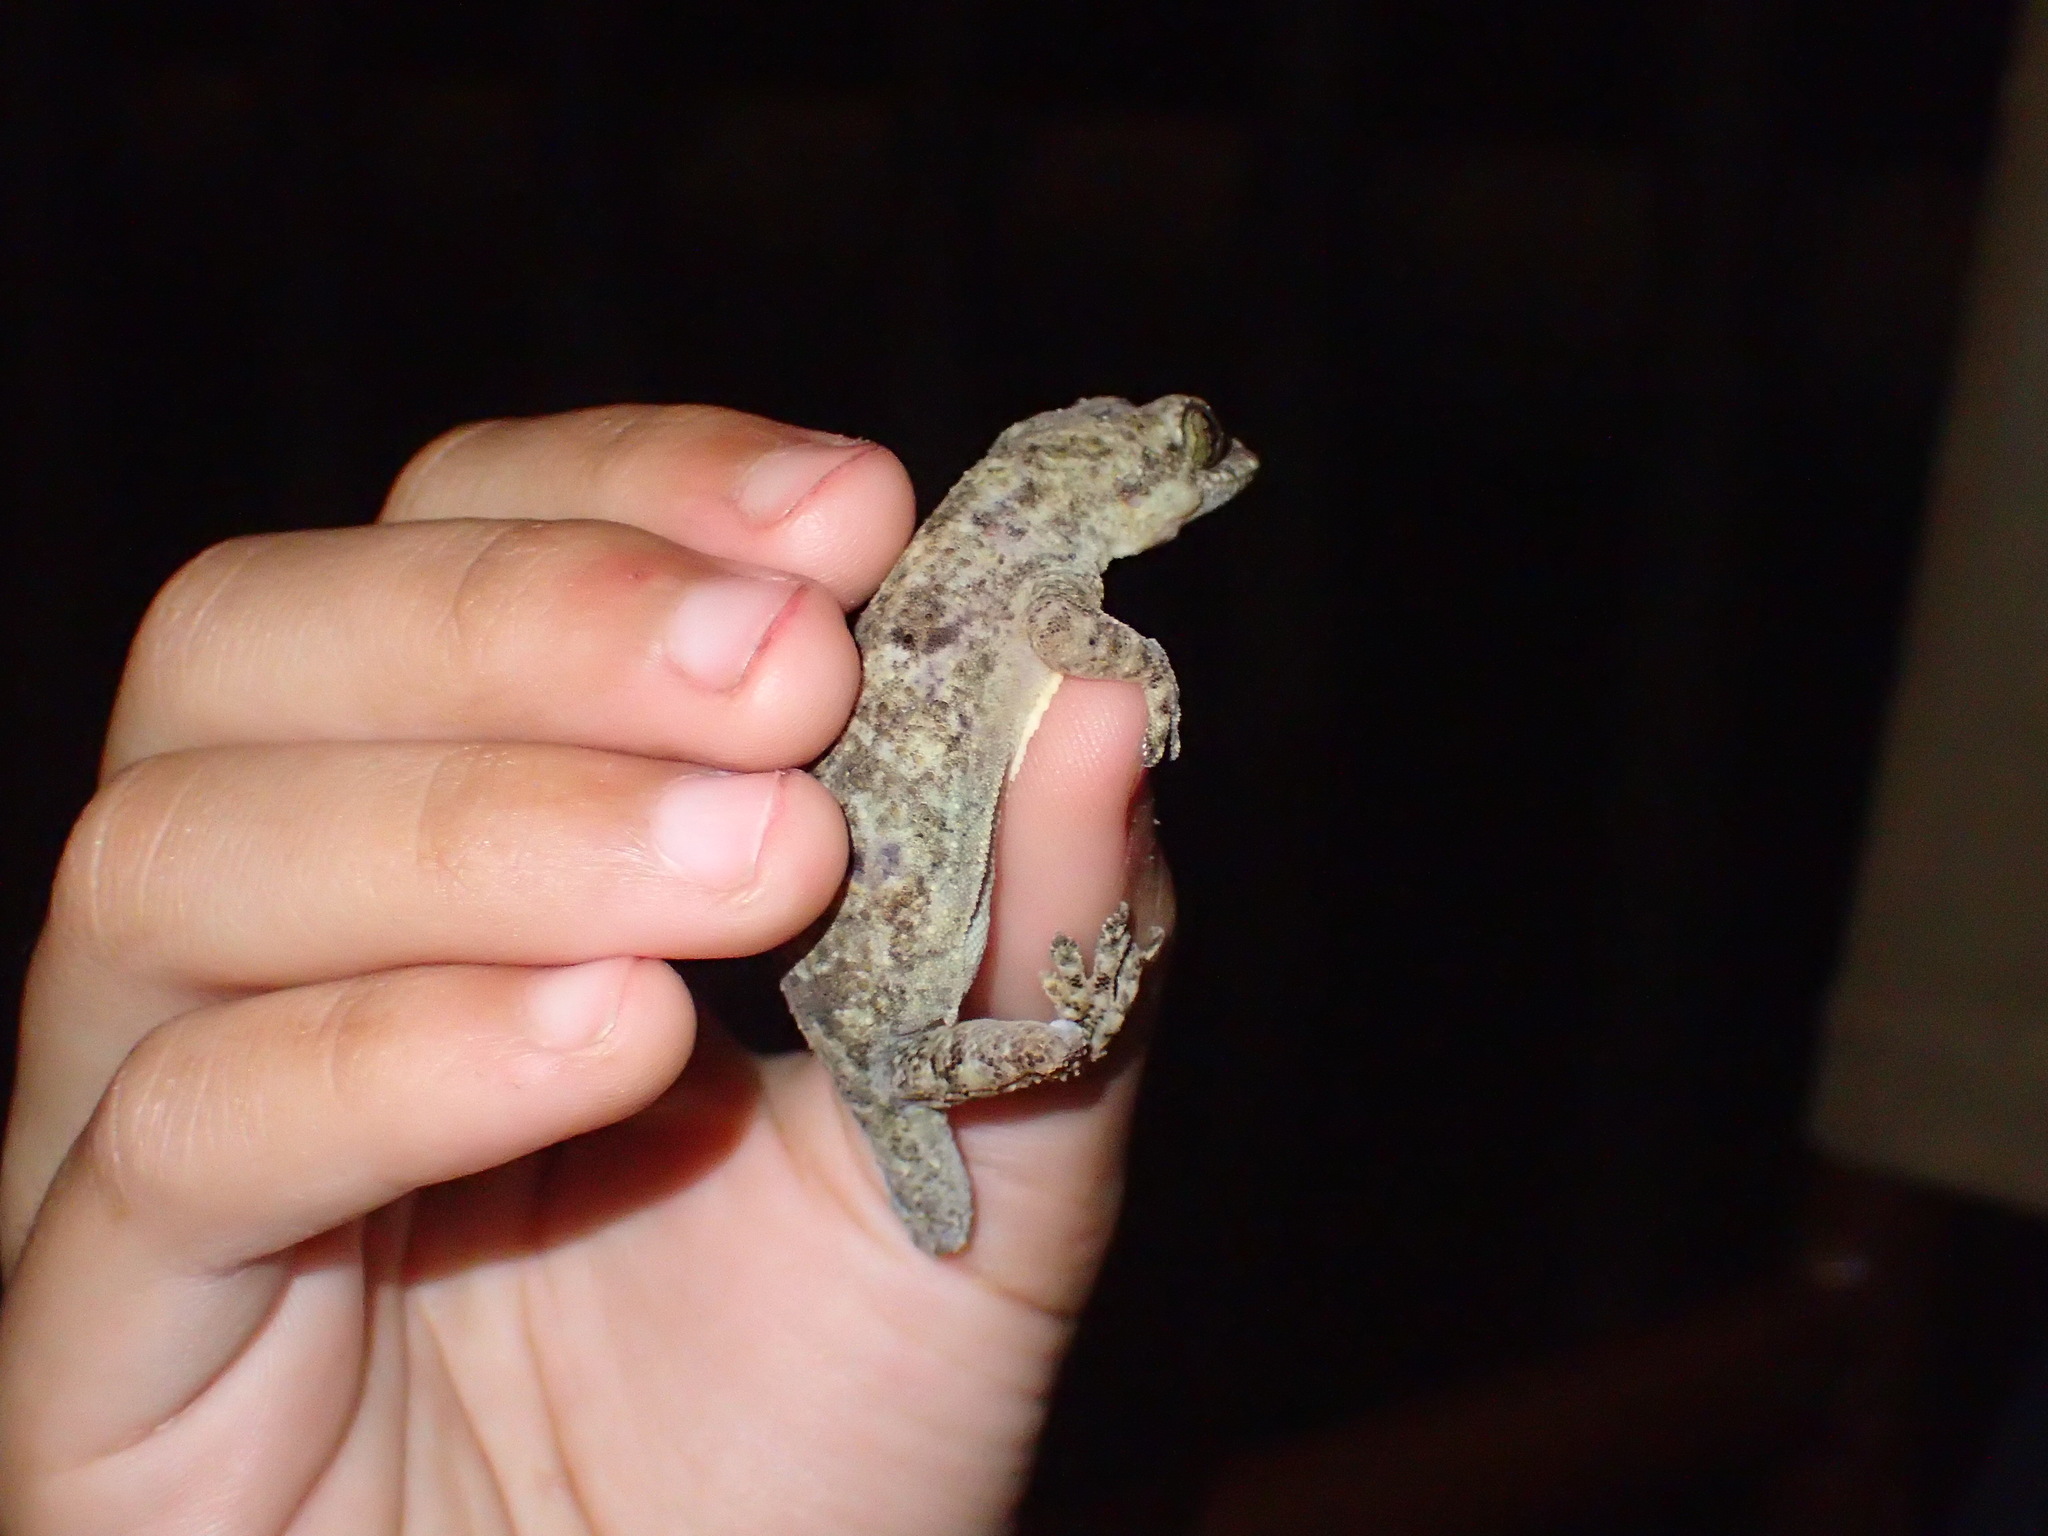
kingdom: Animalia
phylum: Chordata
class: Squamata
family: Gekkonidae
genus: Hemidactylus
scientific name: Hemidactylus mabouia
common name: House gecko
